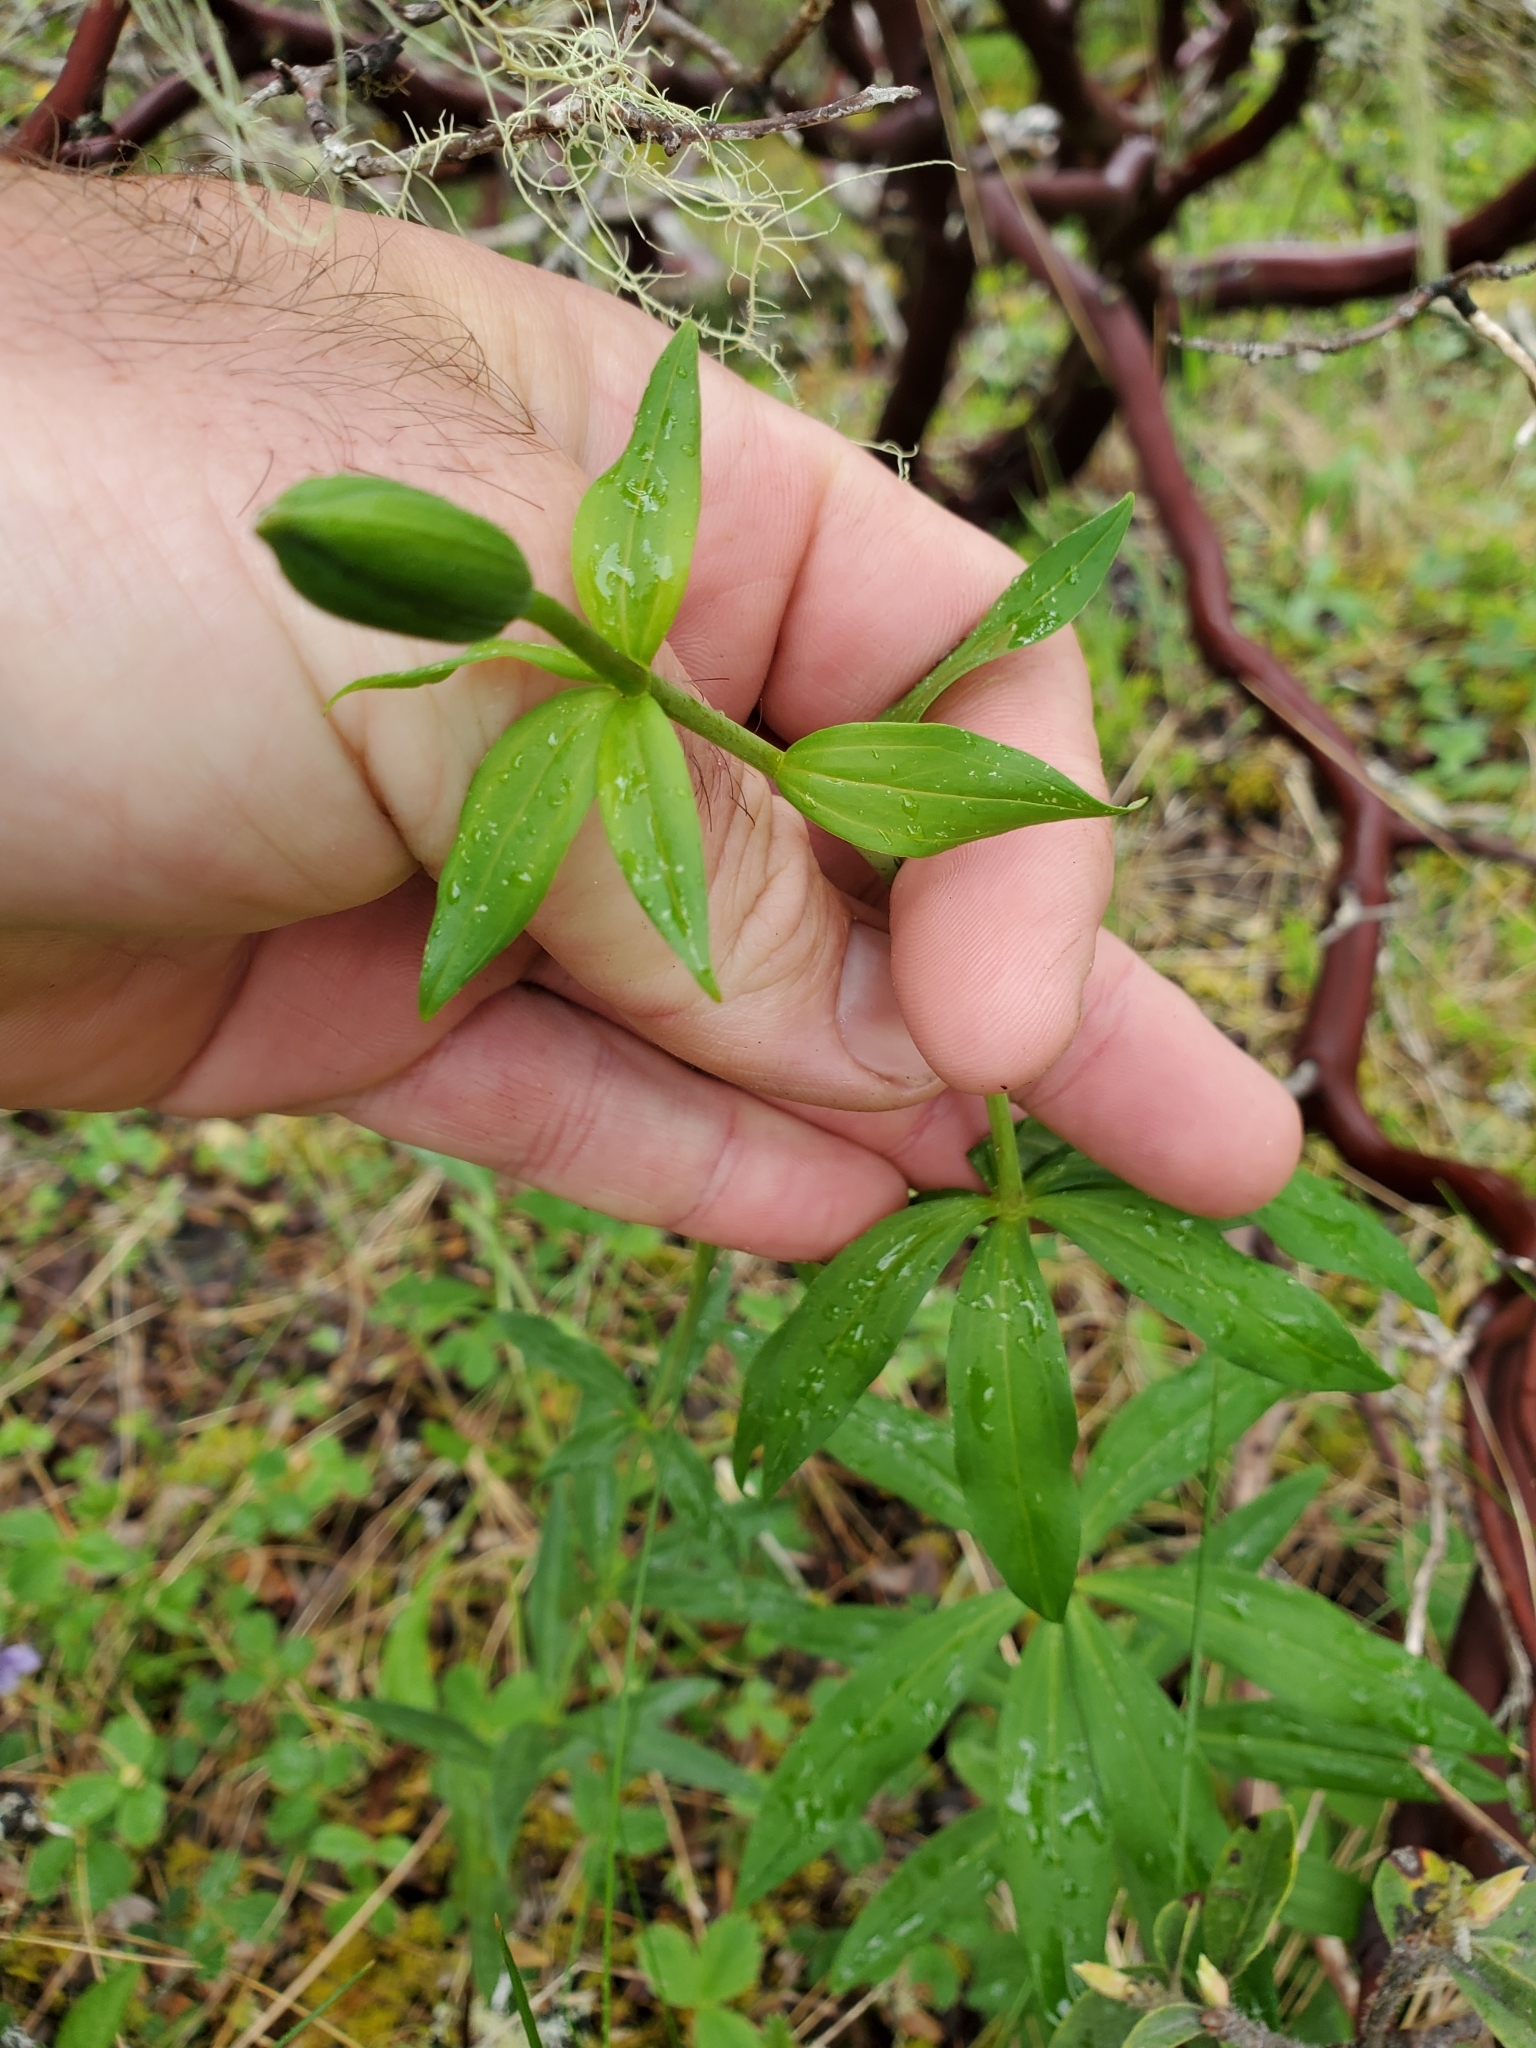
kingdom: Plantae
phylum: Tracheophyta
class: Liliopsida
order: Liliales
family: Liliaceae
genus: Lilium
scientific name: Lilium columbianum
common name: Columbia lily
